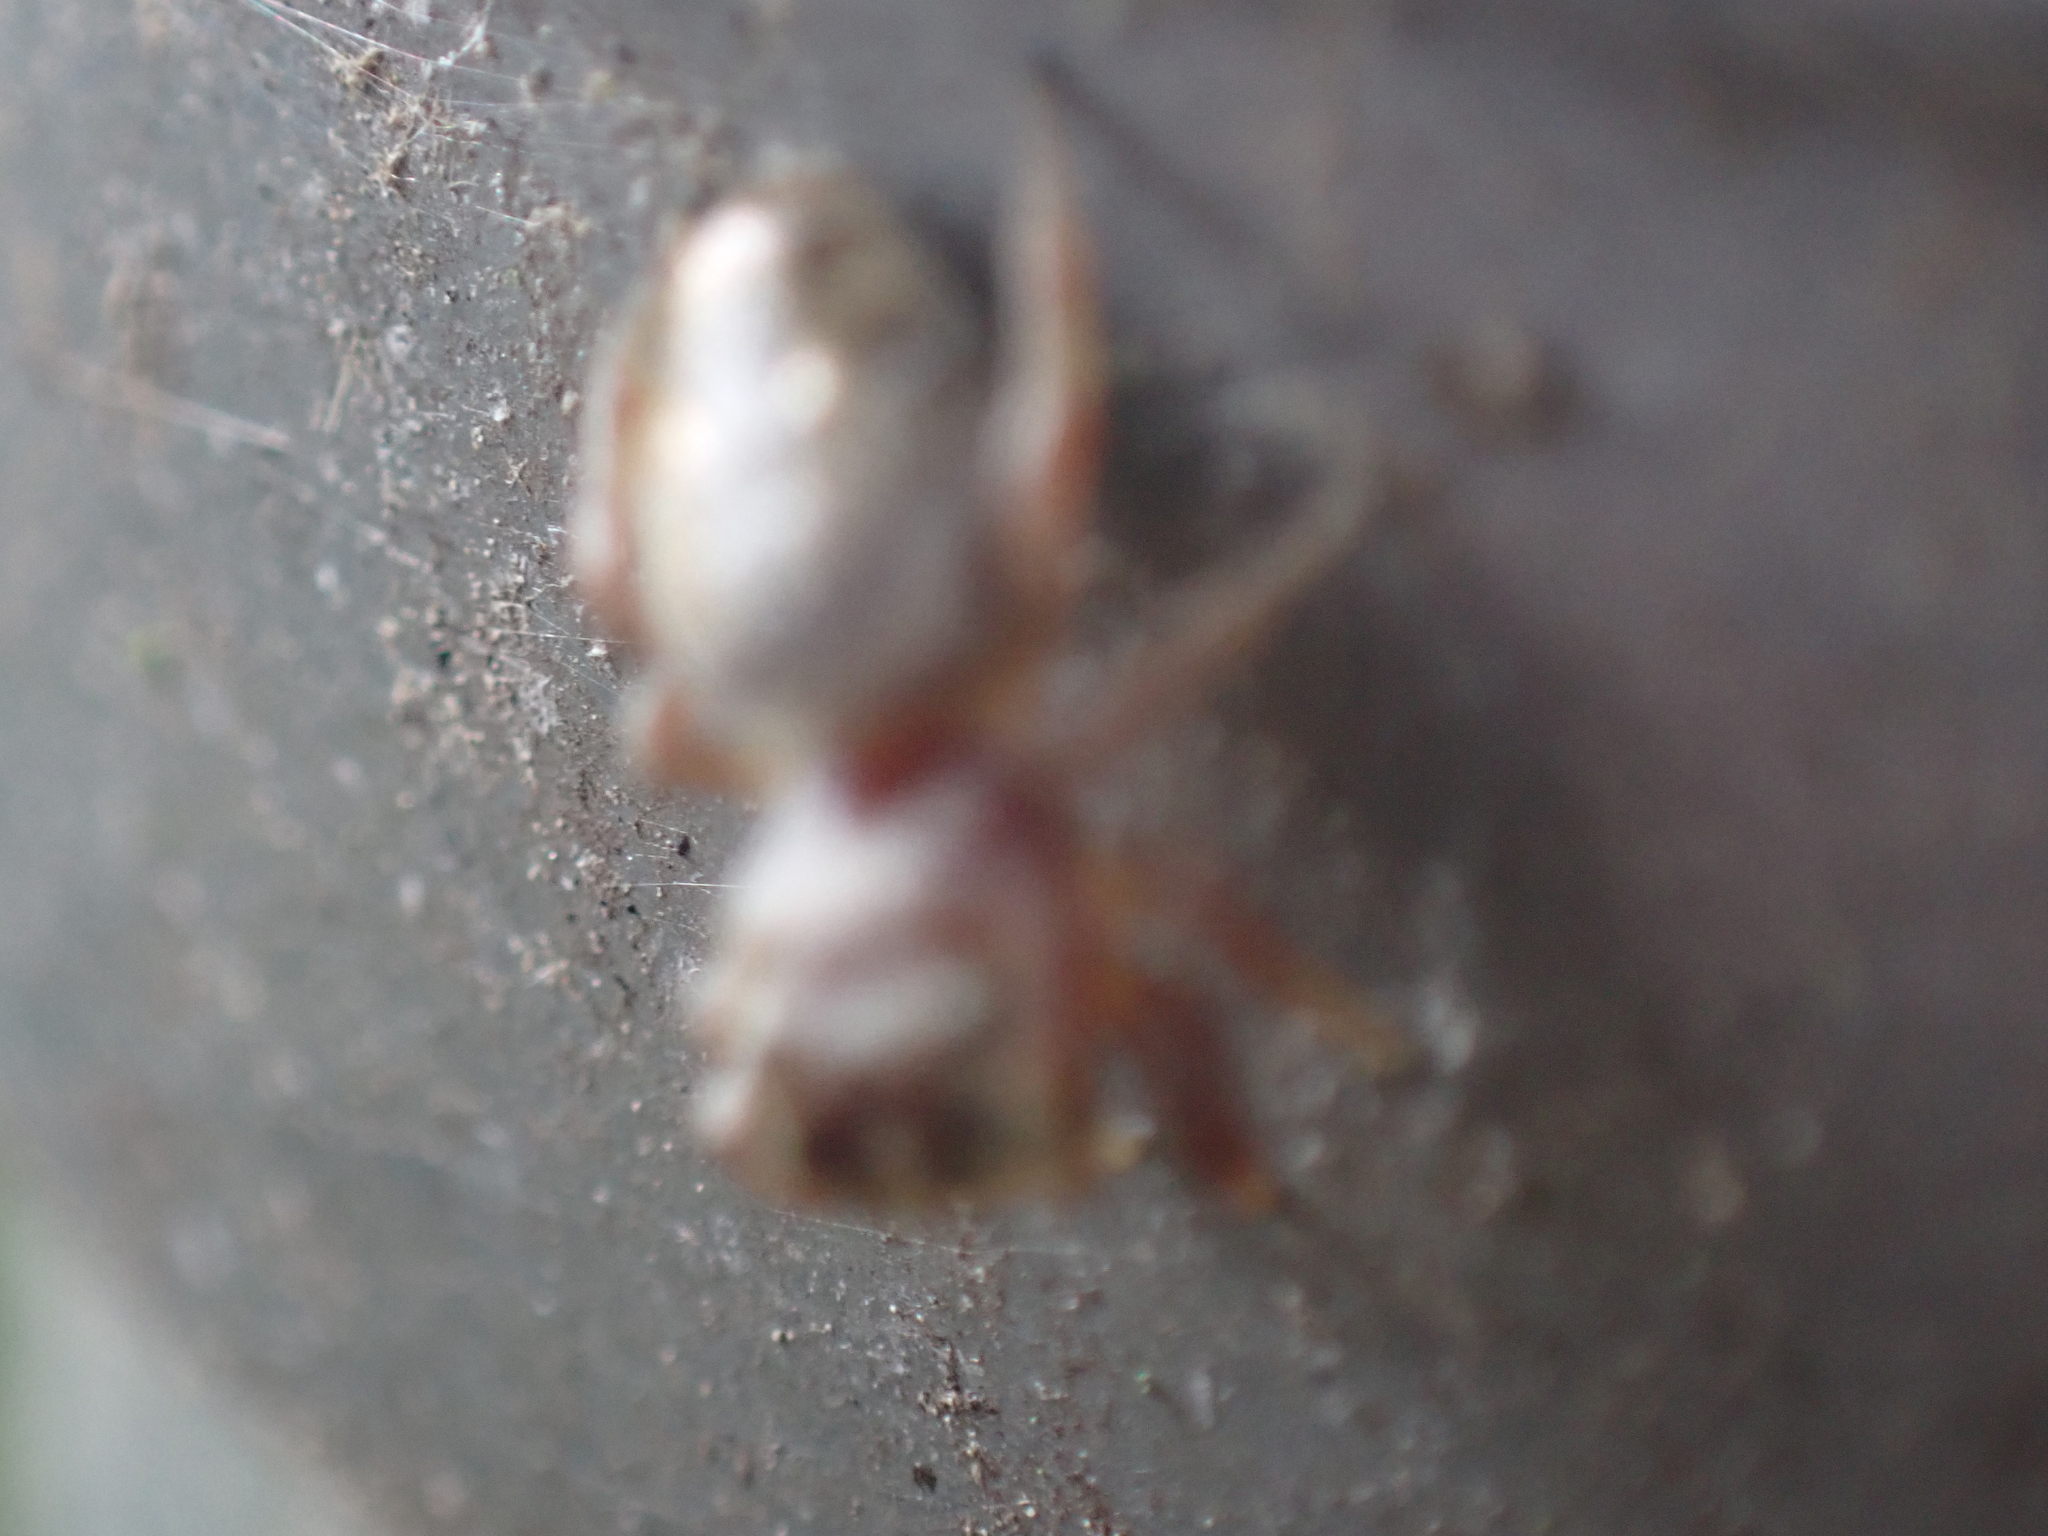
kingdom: Animalia
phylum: Arthropoda
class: Arachnida
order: Araneae
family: Salticidae
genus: Eris
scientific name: Eris floridana
